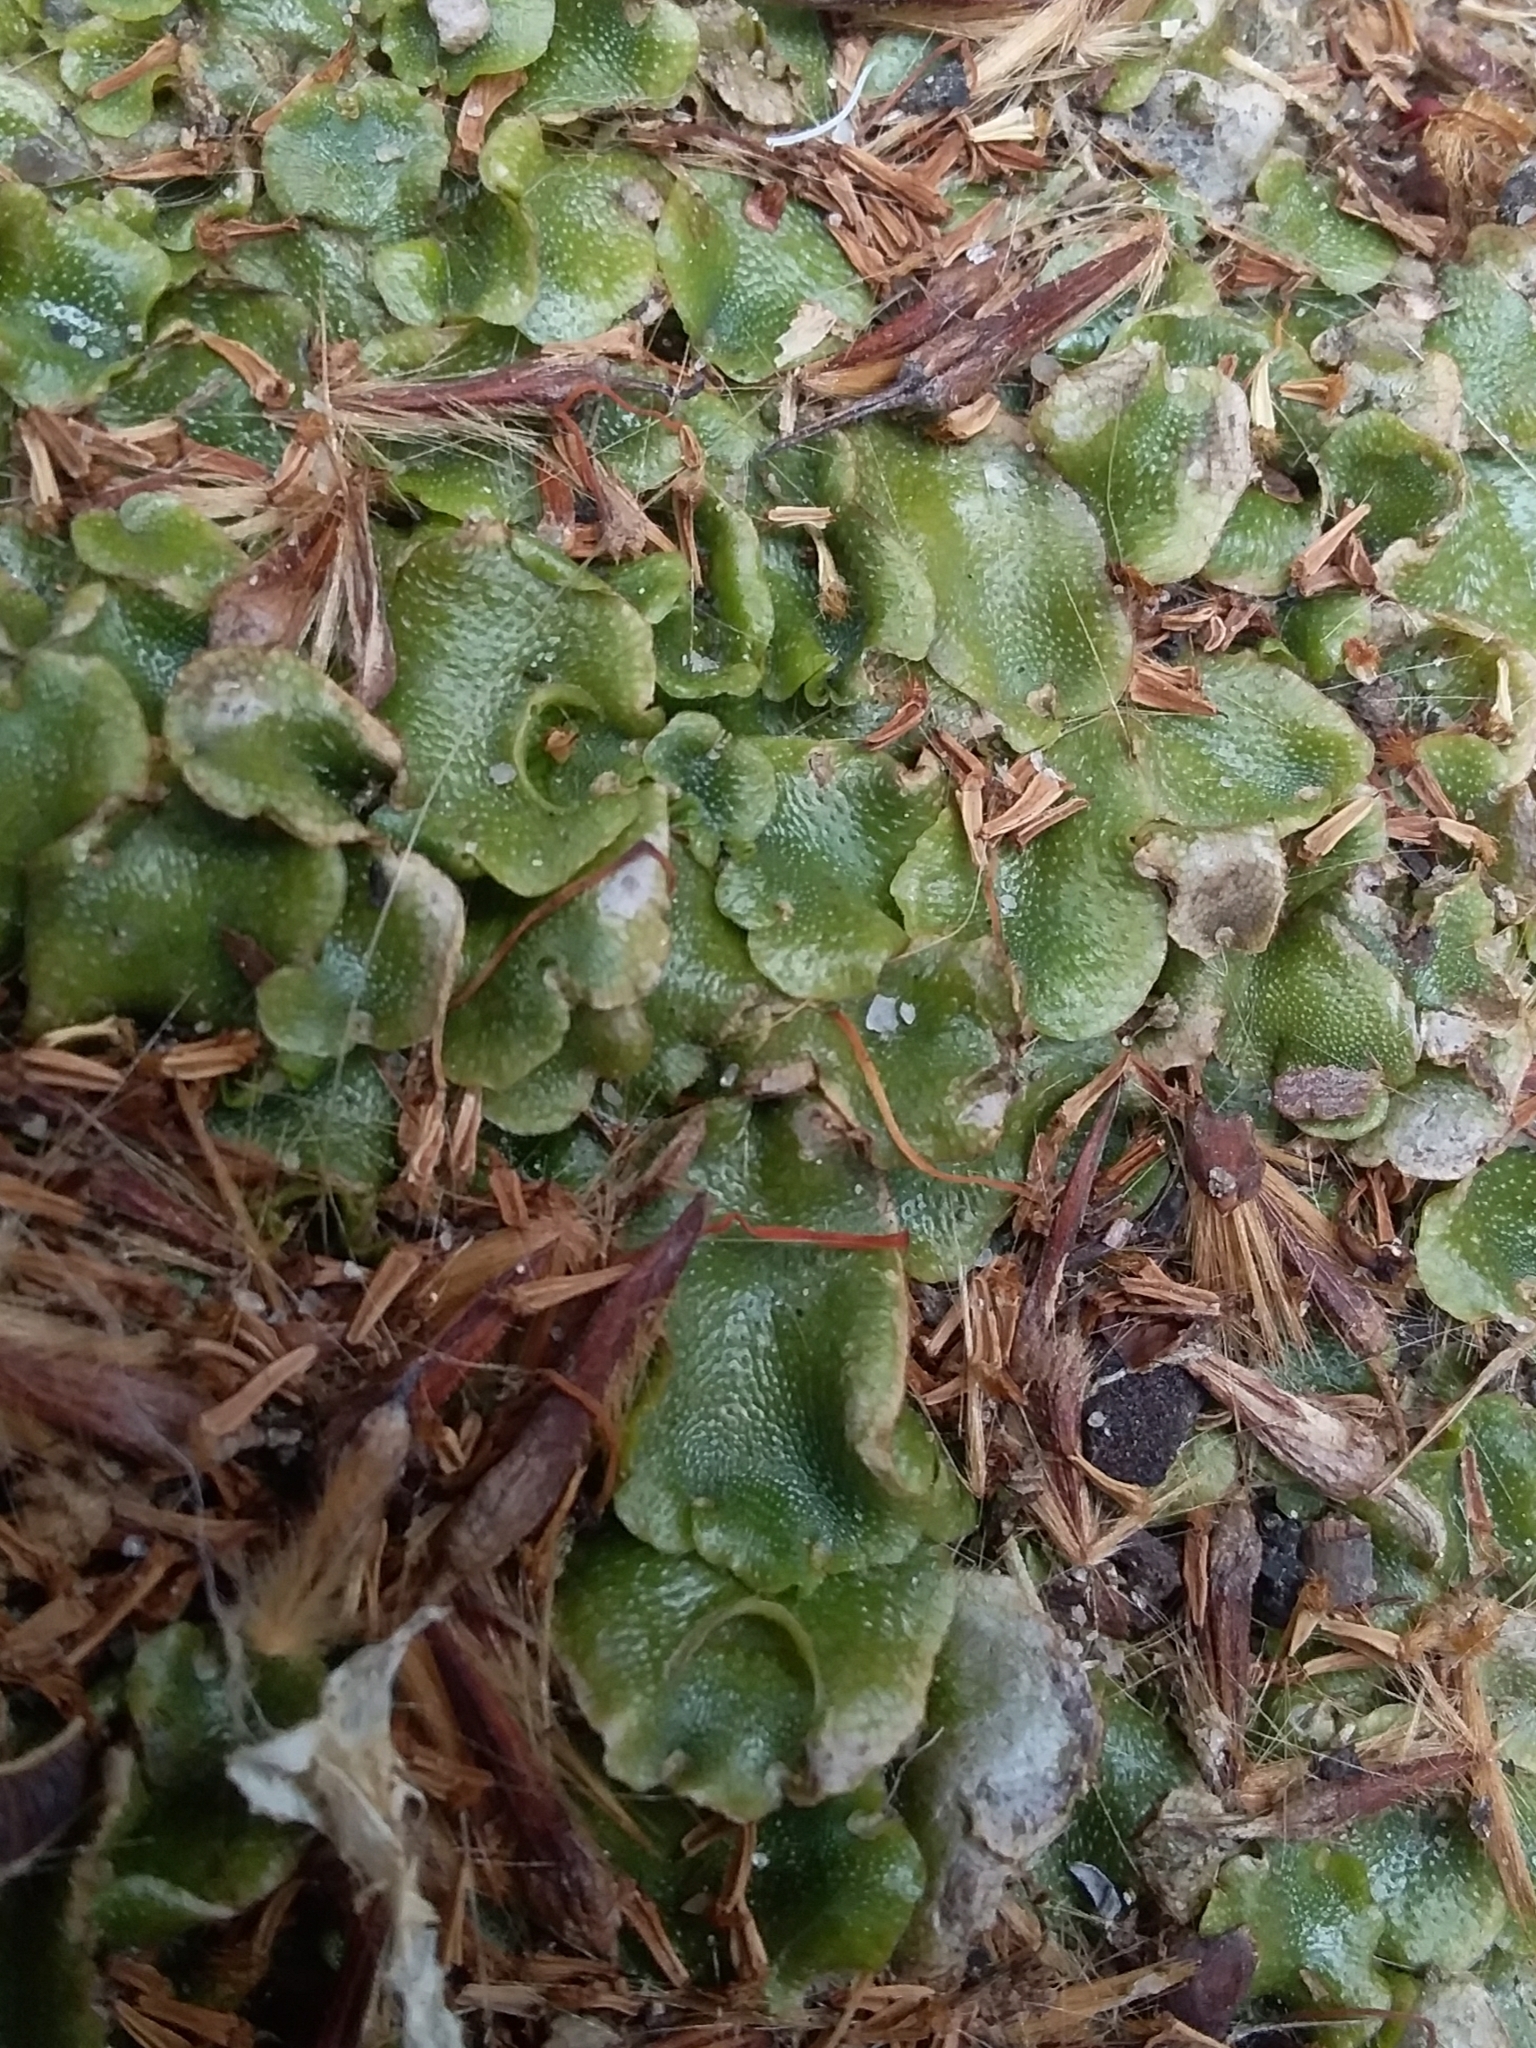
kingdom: Plantae
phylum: Marchantiophyta
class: Marchantiopsida
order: Lunulariales
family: Lunulariaceae
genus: Lunularia
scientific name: Lunularia cruciata
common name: Crescent-cup liverwort
